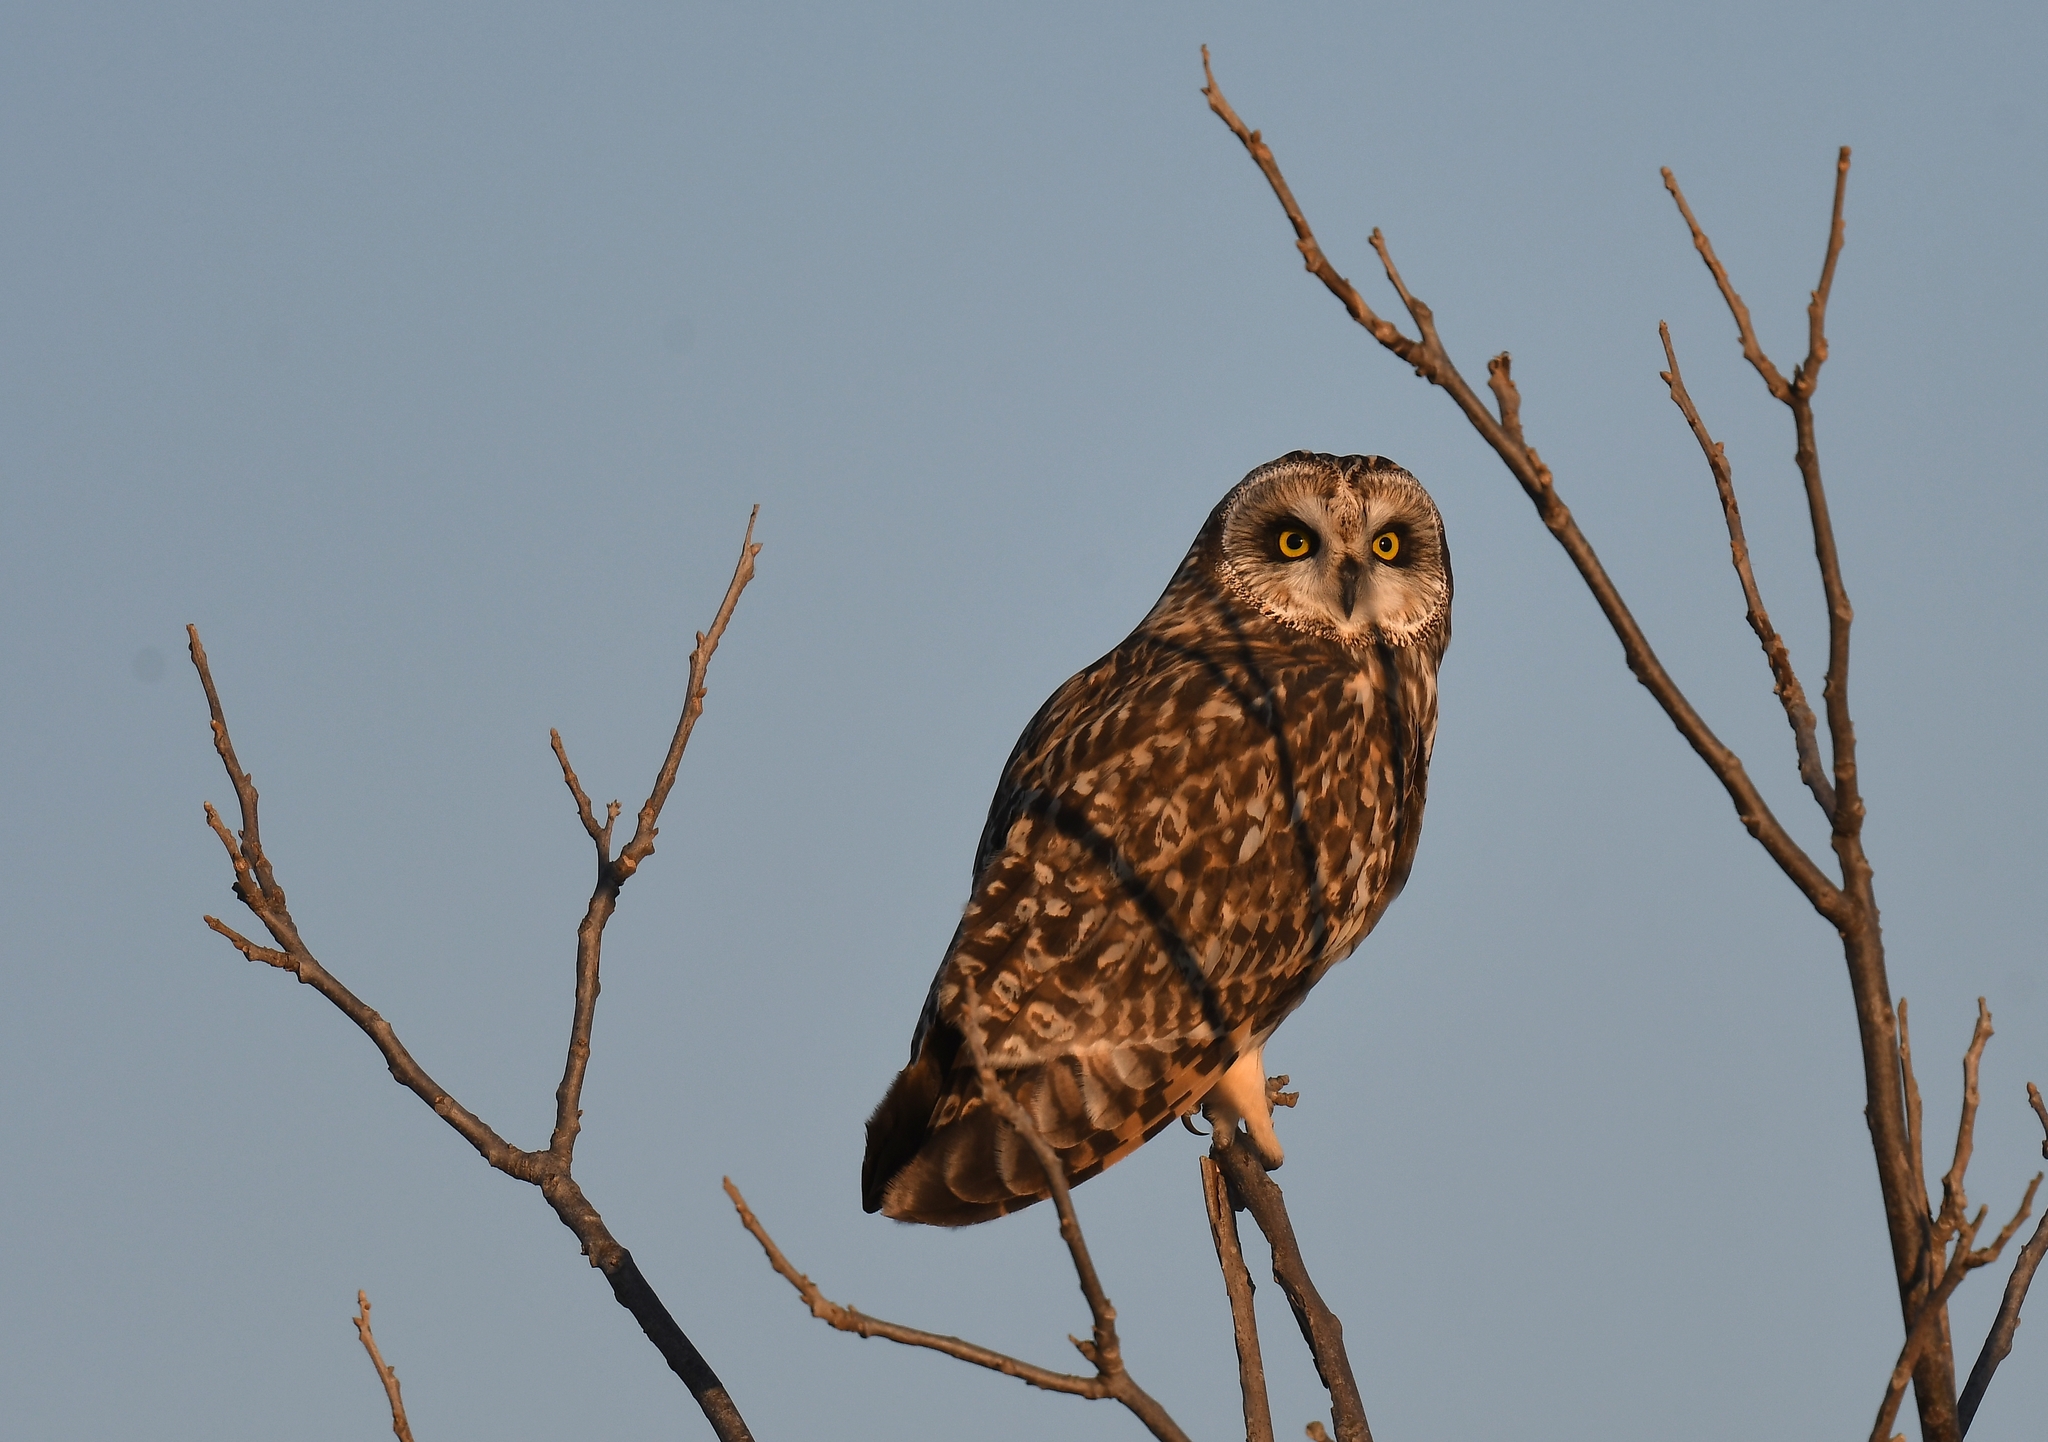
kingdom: Animalia
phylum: Chordata
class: Aves
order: Strigiformes
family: Strigidae
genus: Asio
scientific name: Asio flammeus
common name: Short-eared owl
